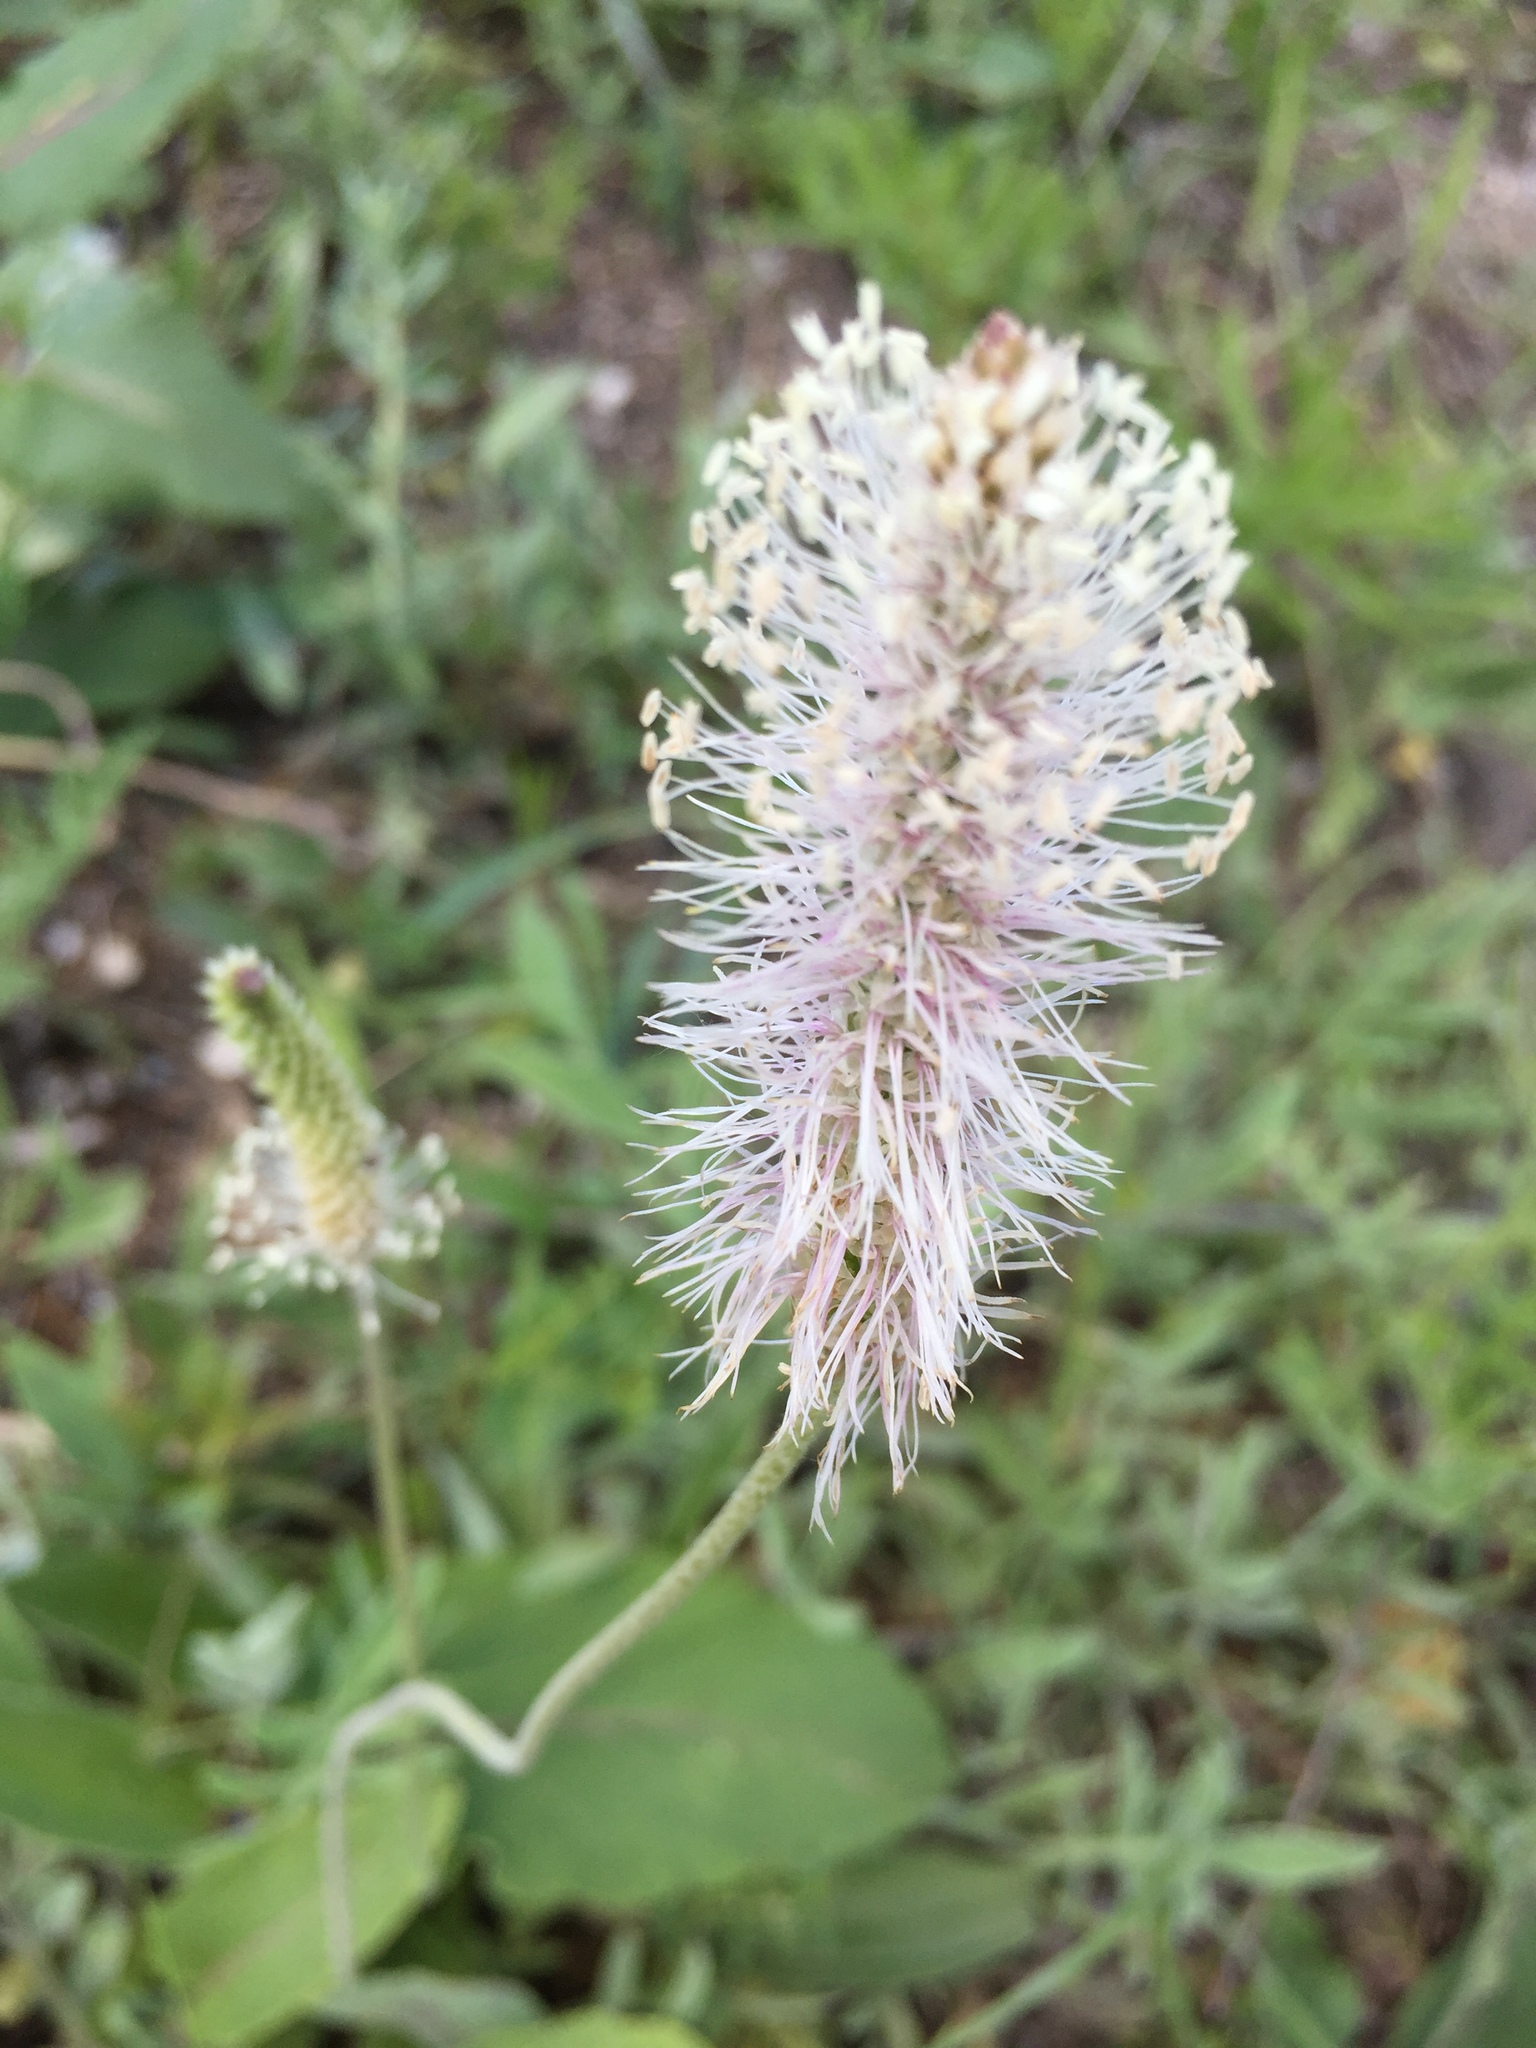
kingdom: Plantae
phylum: Tracheophyta
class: Magnoliopsida
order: Lamiales
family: Plantaginaceae
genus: Plantago
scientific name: Plantago media
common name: Hoary plantain
